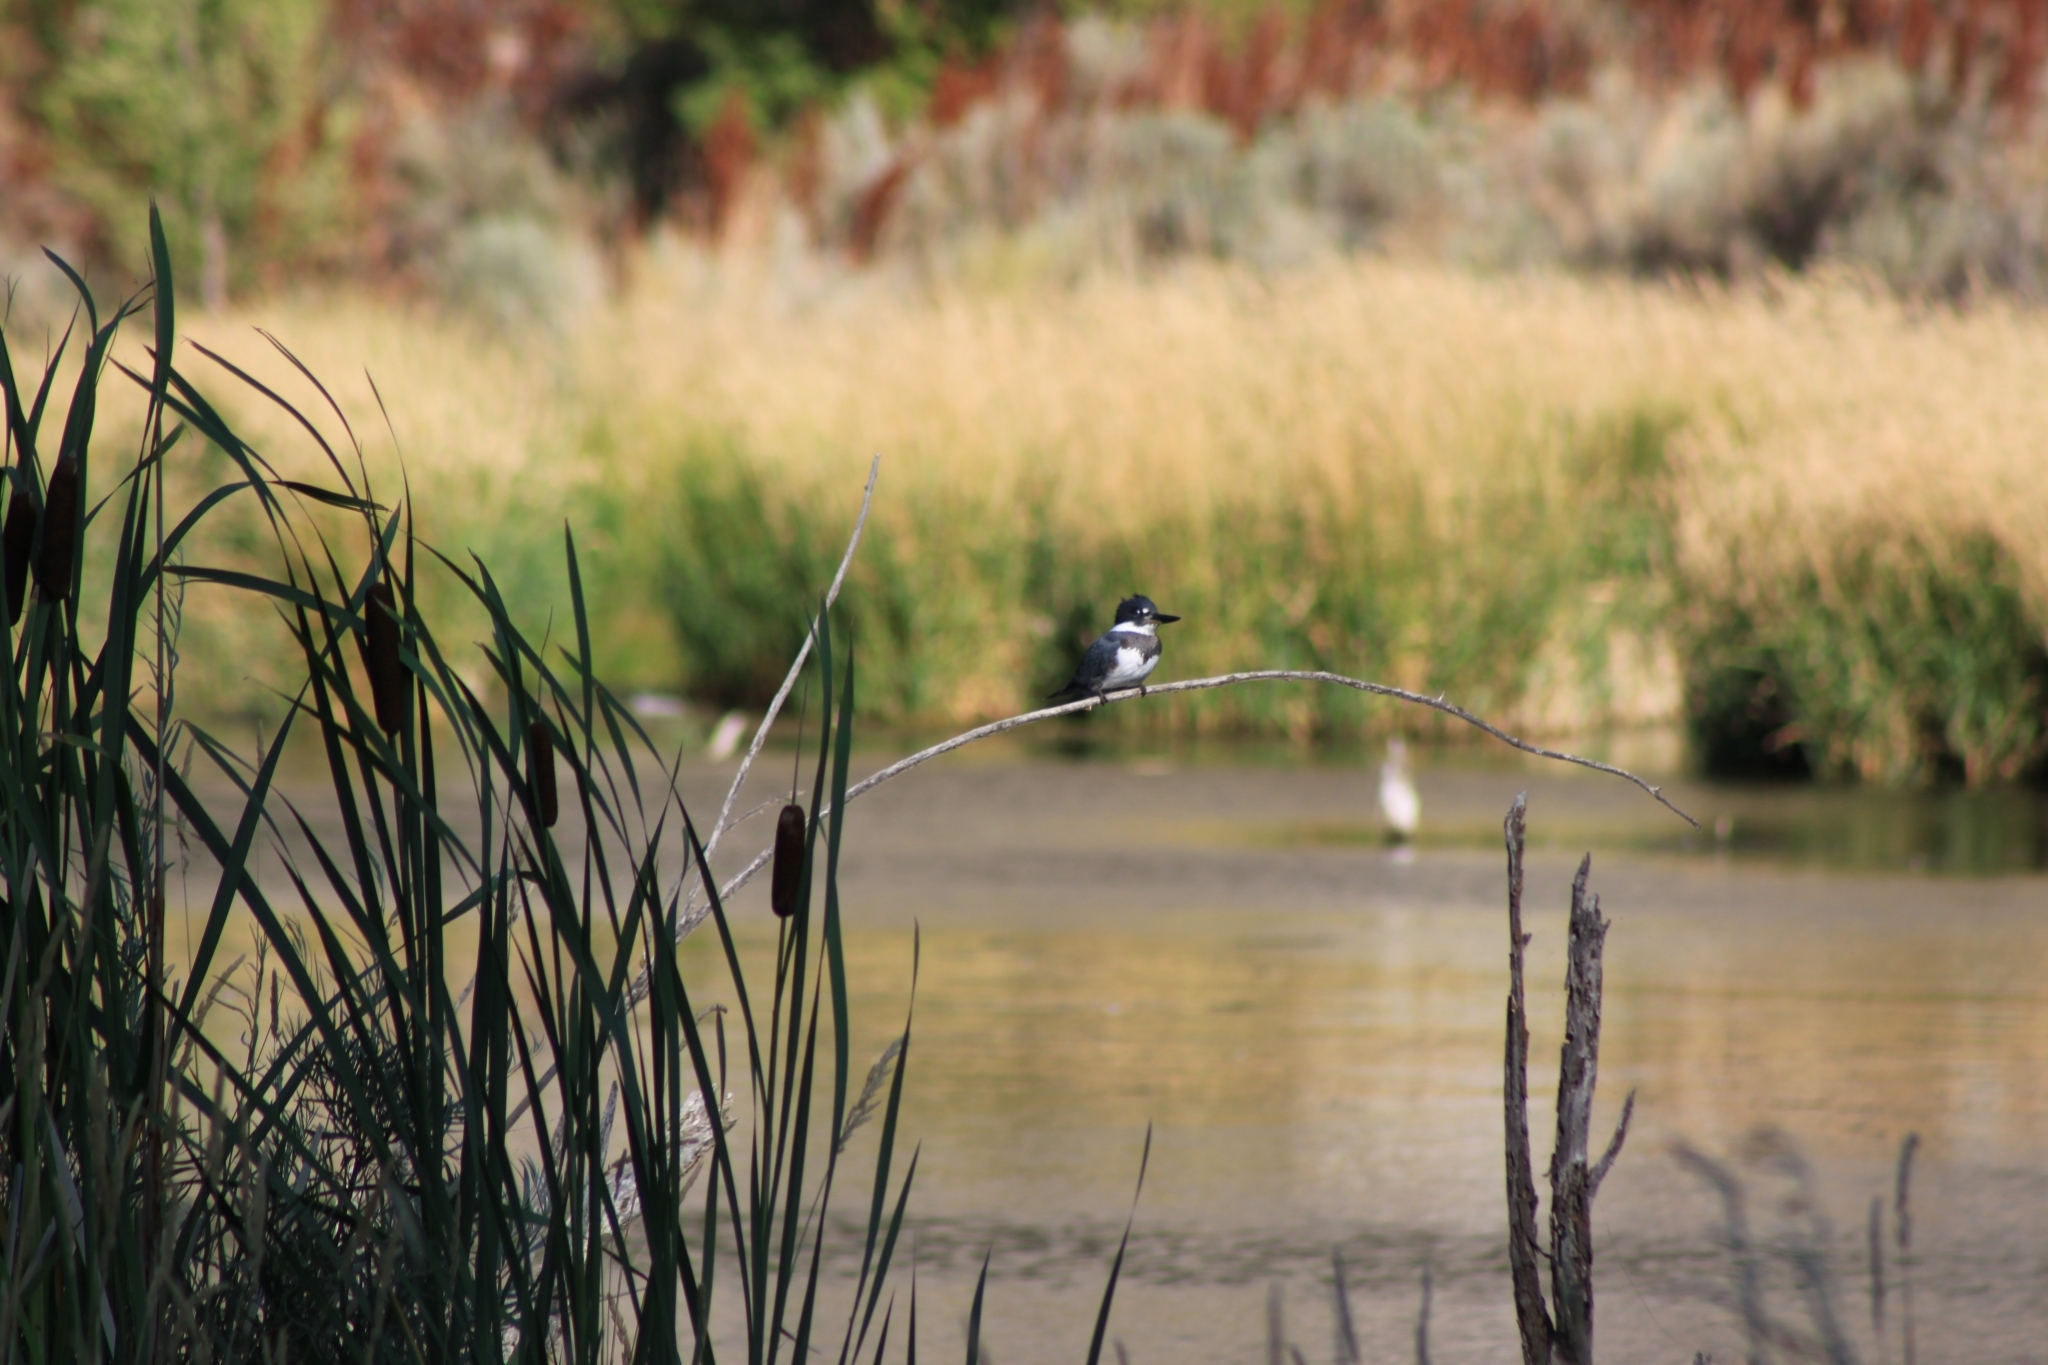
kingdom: Animalia
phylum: Chordata
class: Aves
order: Coraciiformes
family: Alcedinidae
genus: Megaceryle
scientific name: Megaceryle alcyon
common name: Belted kingfisher
